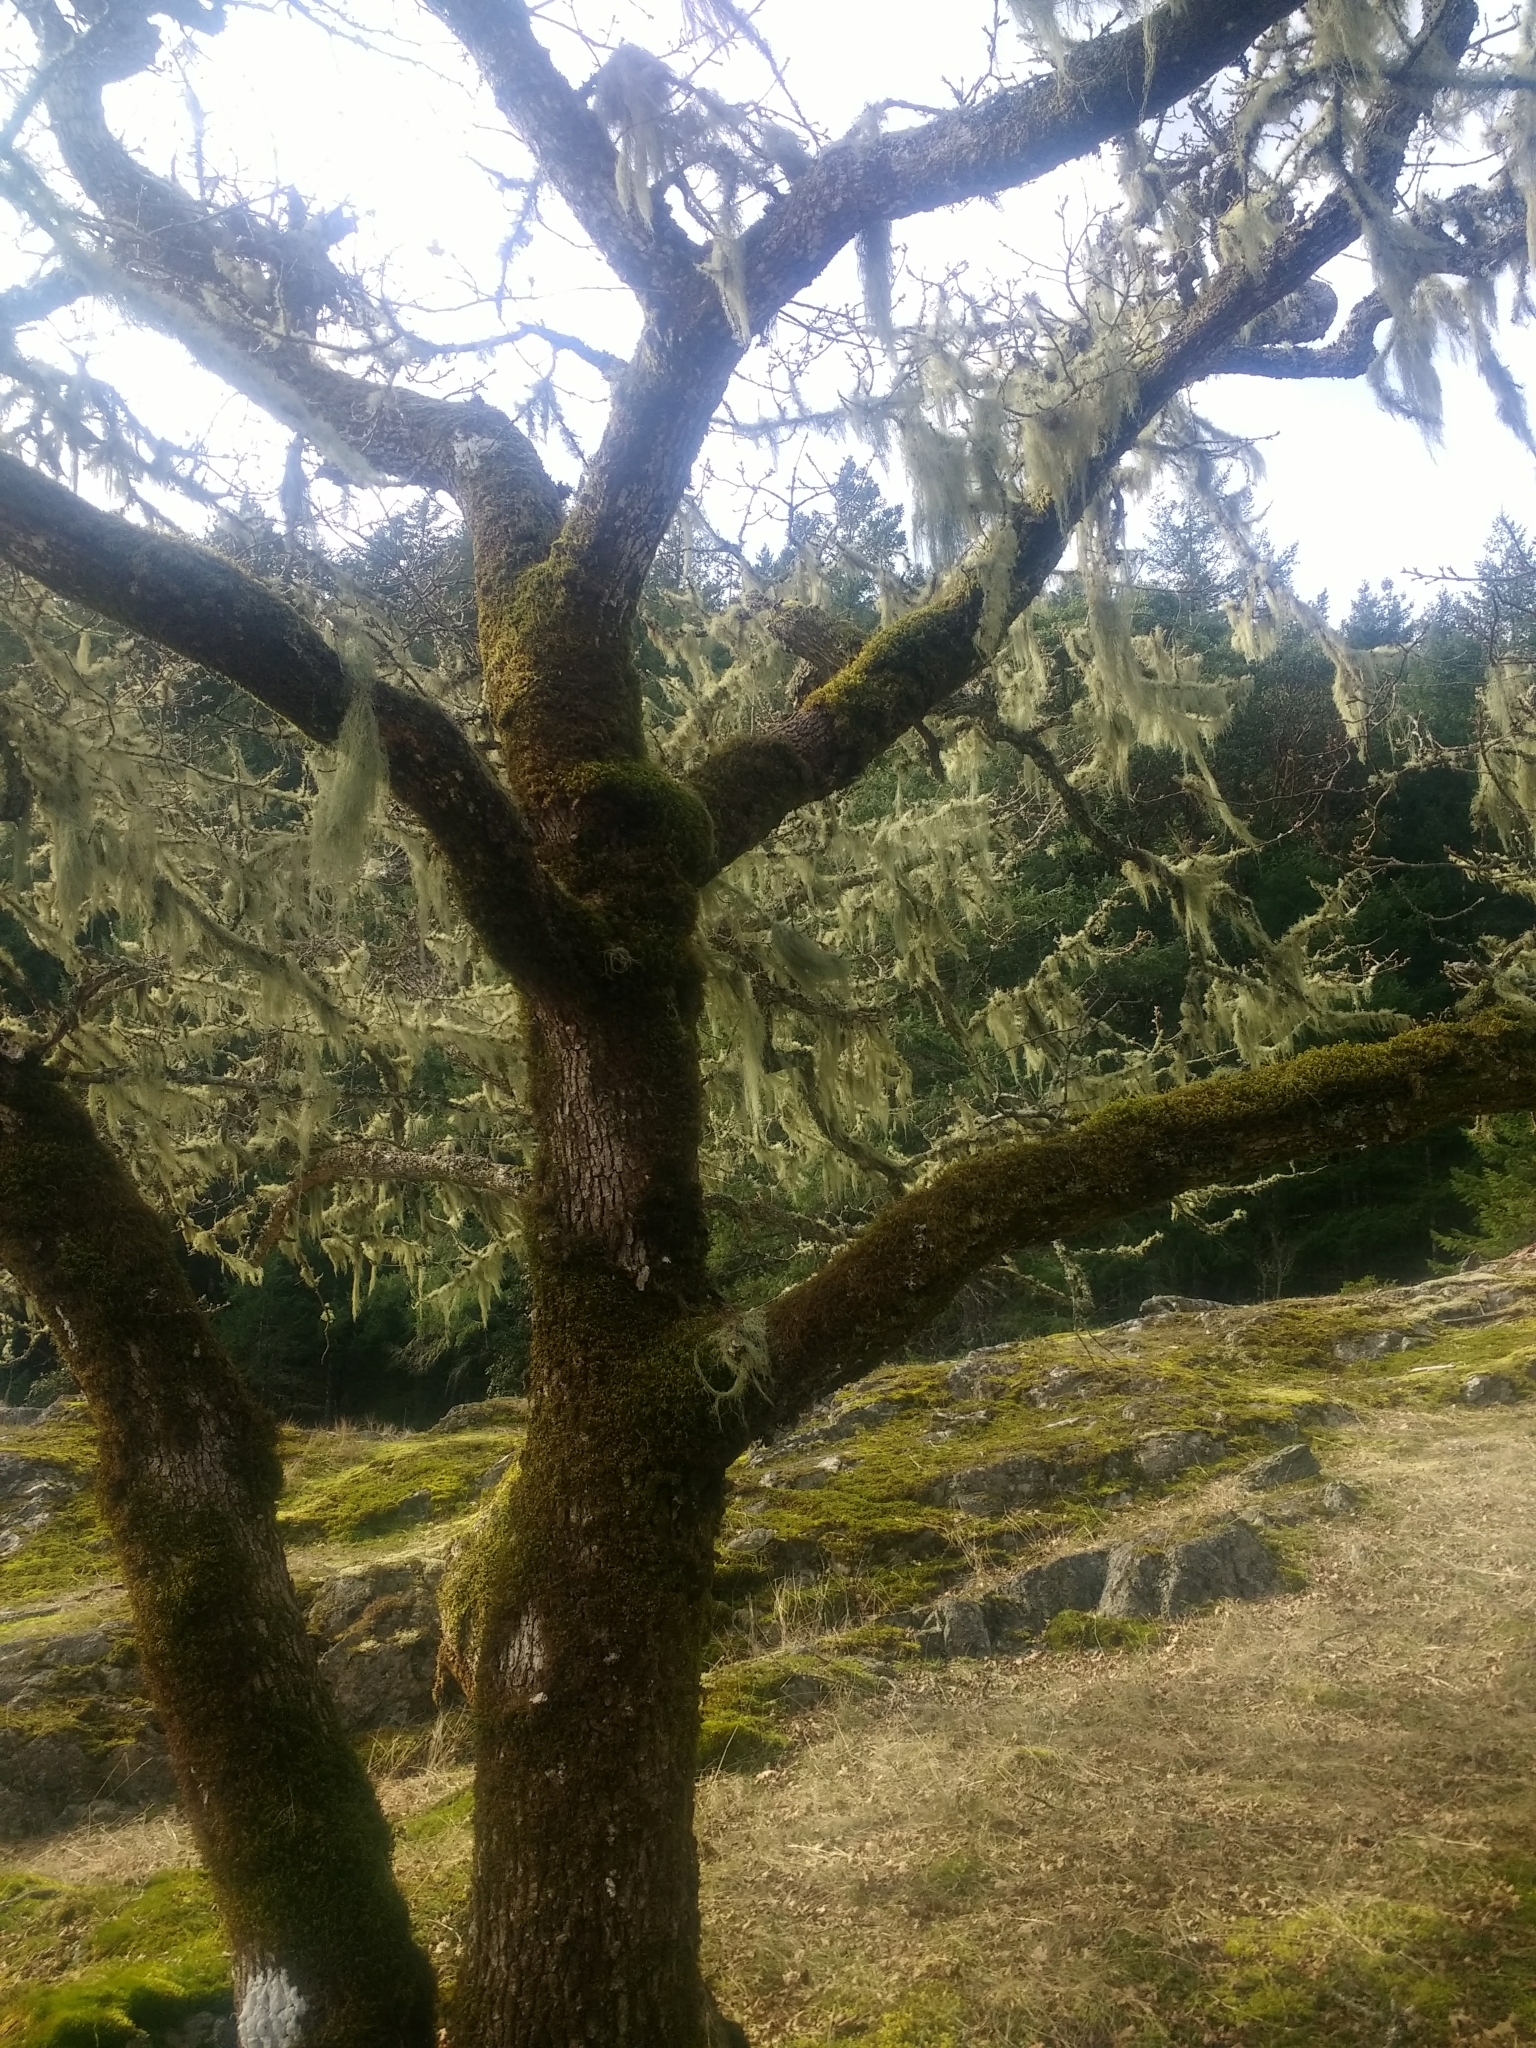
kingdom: Plantae
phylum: Tracheophyta
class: Magnoliopsida
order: Fagales
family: Fagaceae
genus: Quercus
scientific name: Quercus garryana
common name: Garry oak
